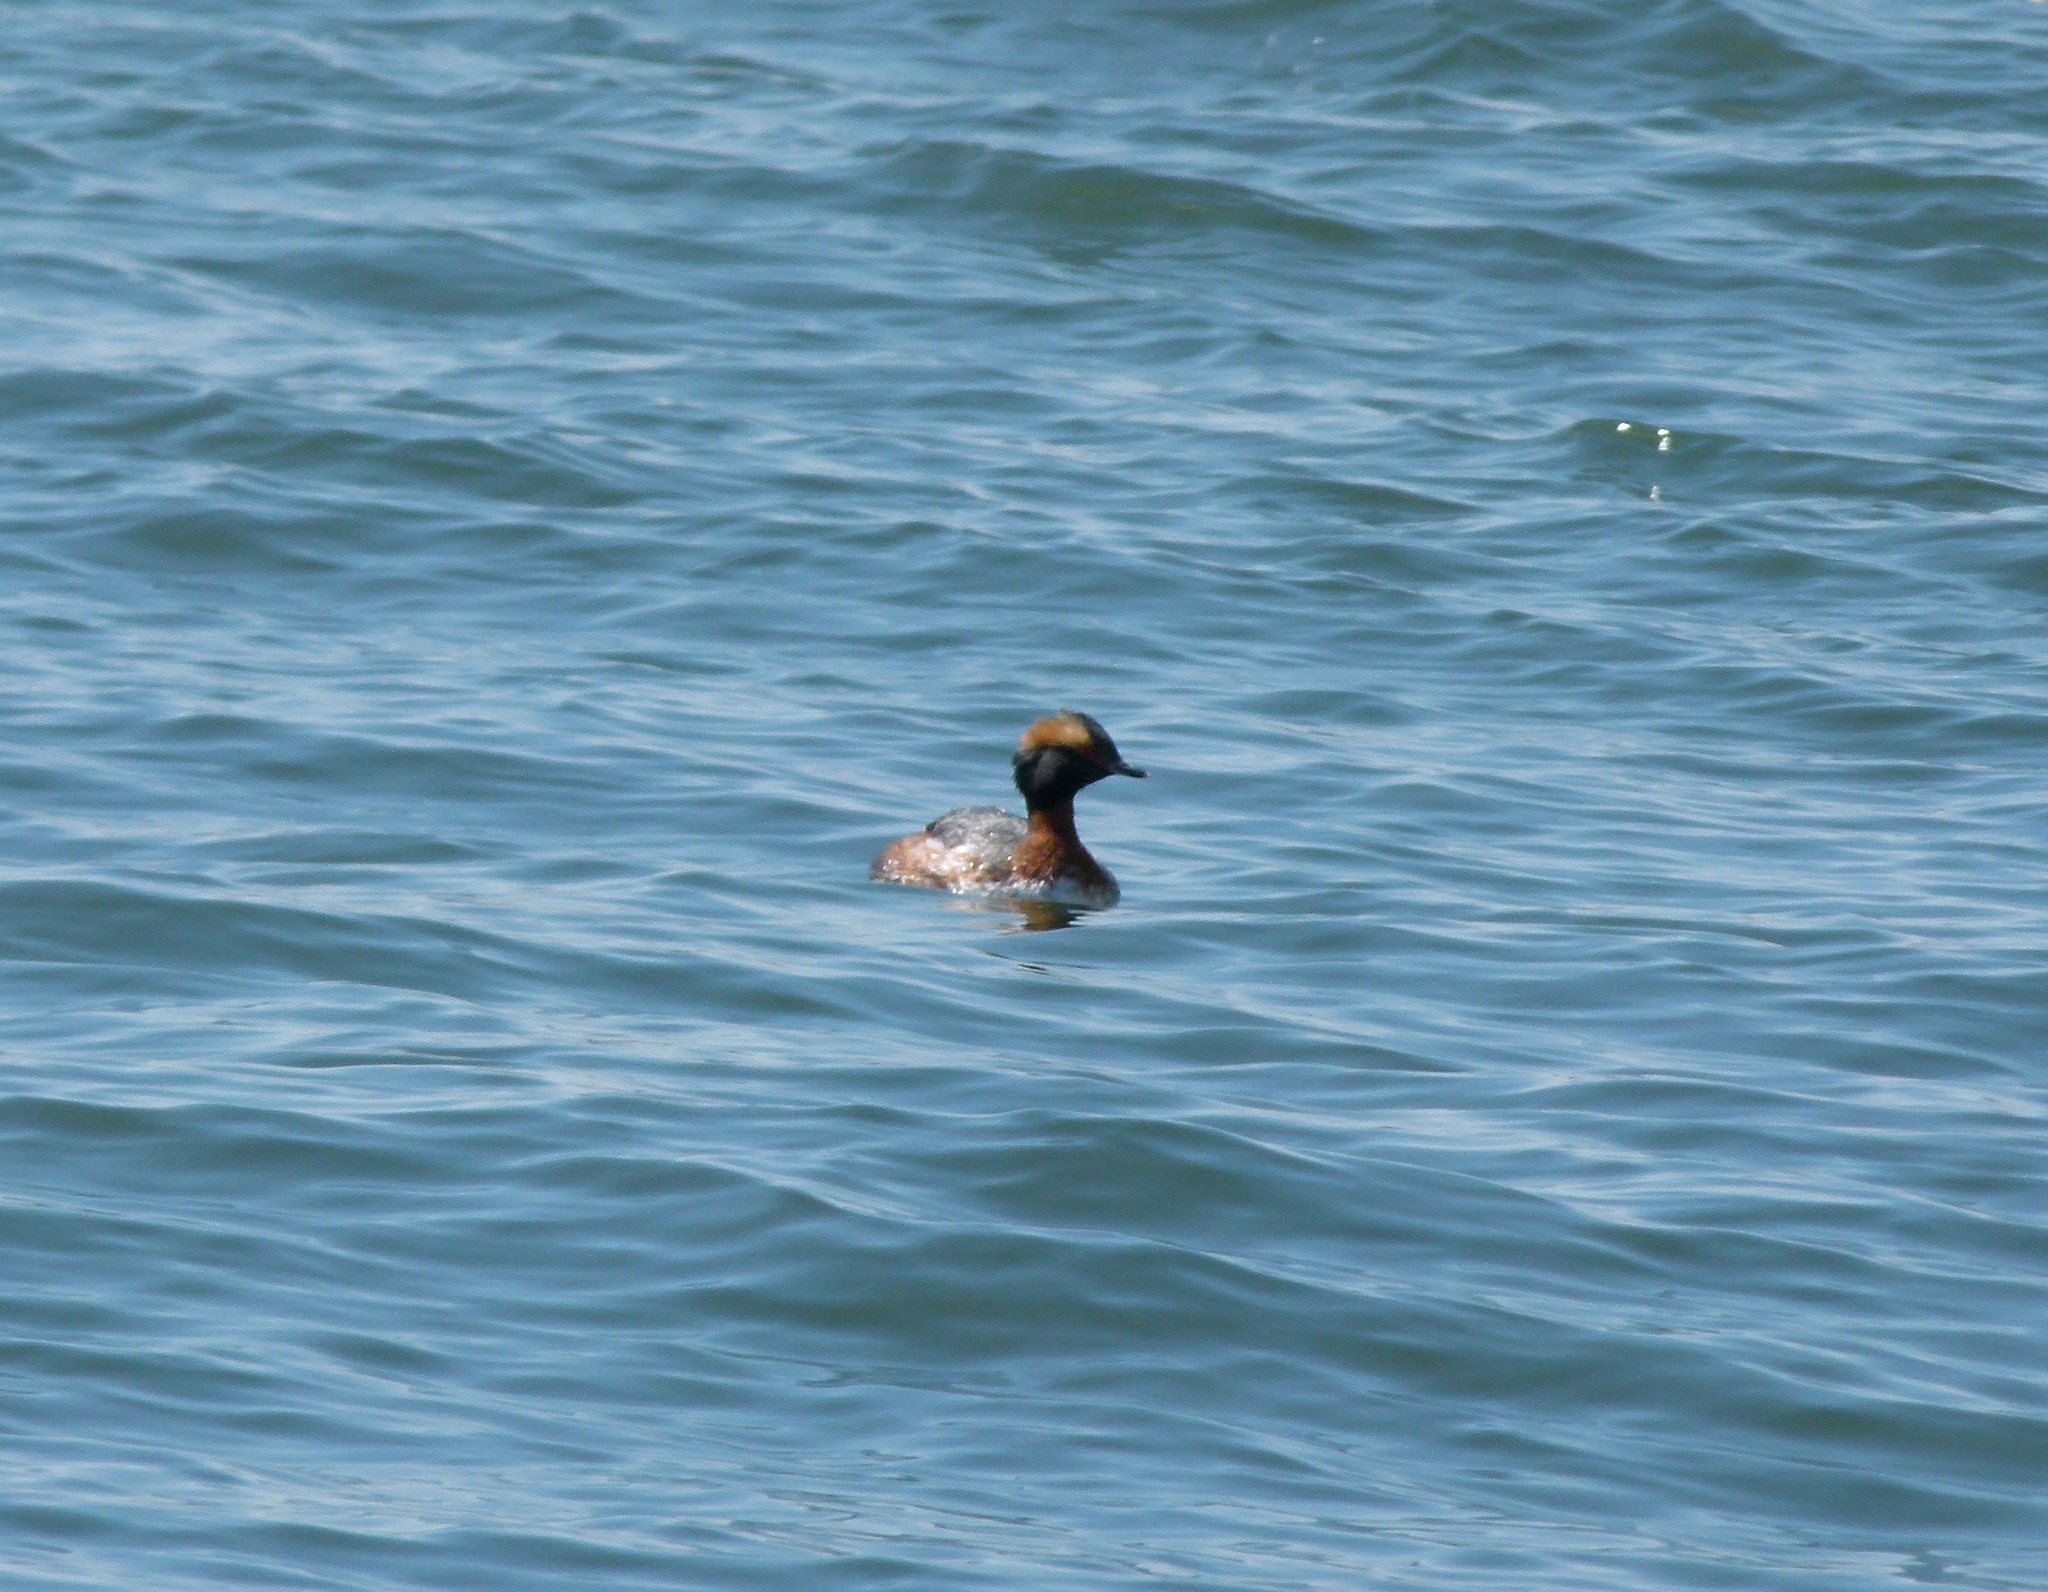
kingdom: Animalia
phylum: Chordata
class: Aves
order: Podicipediformes
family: Podicipedidae
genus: Podiceps
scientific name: Podiceps auritus
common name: Horned grebe
